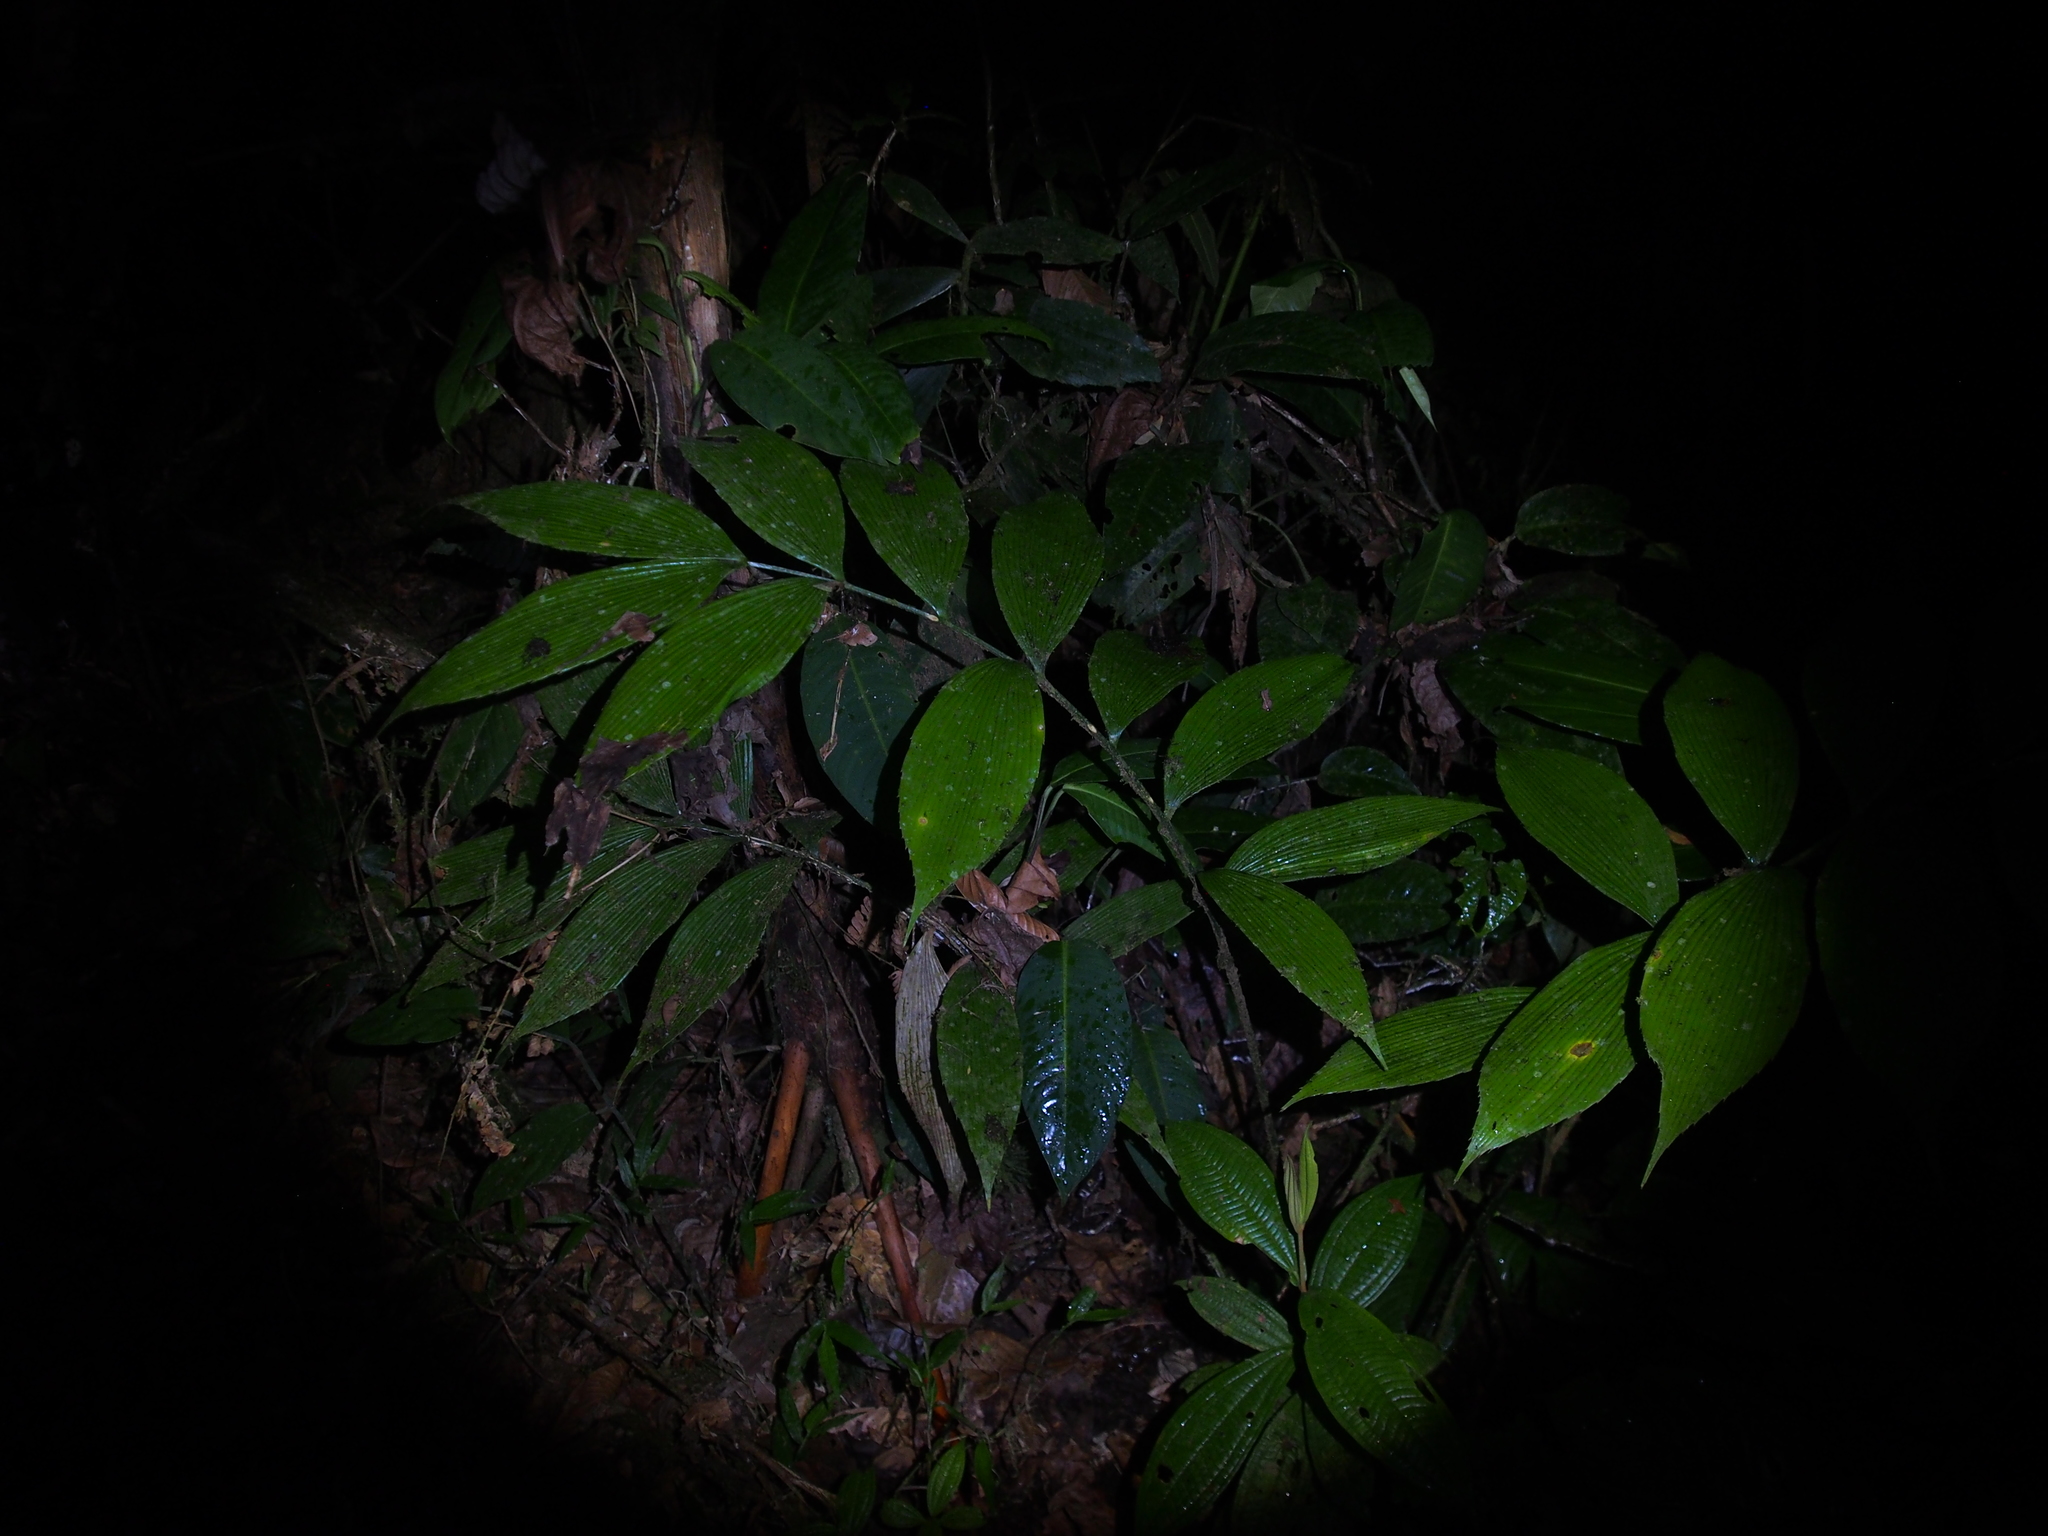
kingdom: Plantae
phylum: Tracheophyta
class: Cycadopsida
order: Cycadales
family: Zamiaceae
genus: Zamia
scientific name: Zamia neurophyllidia
